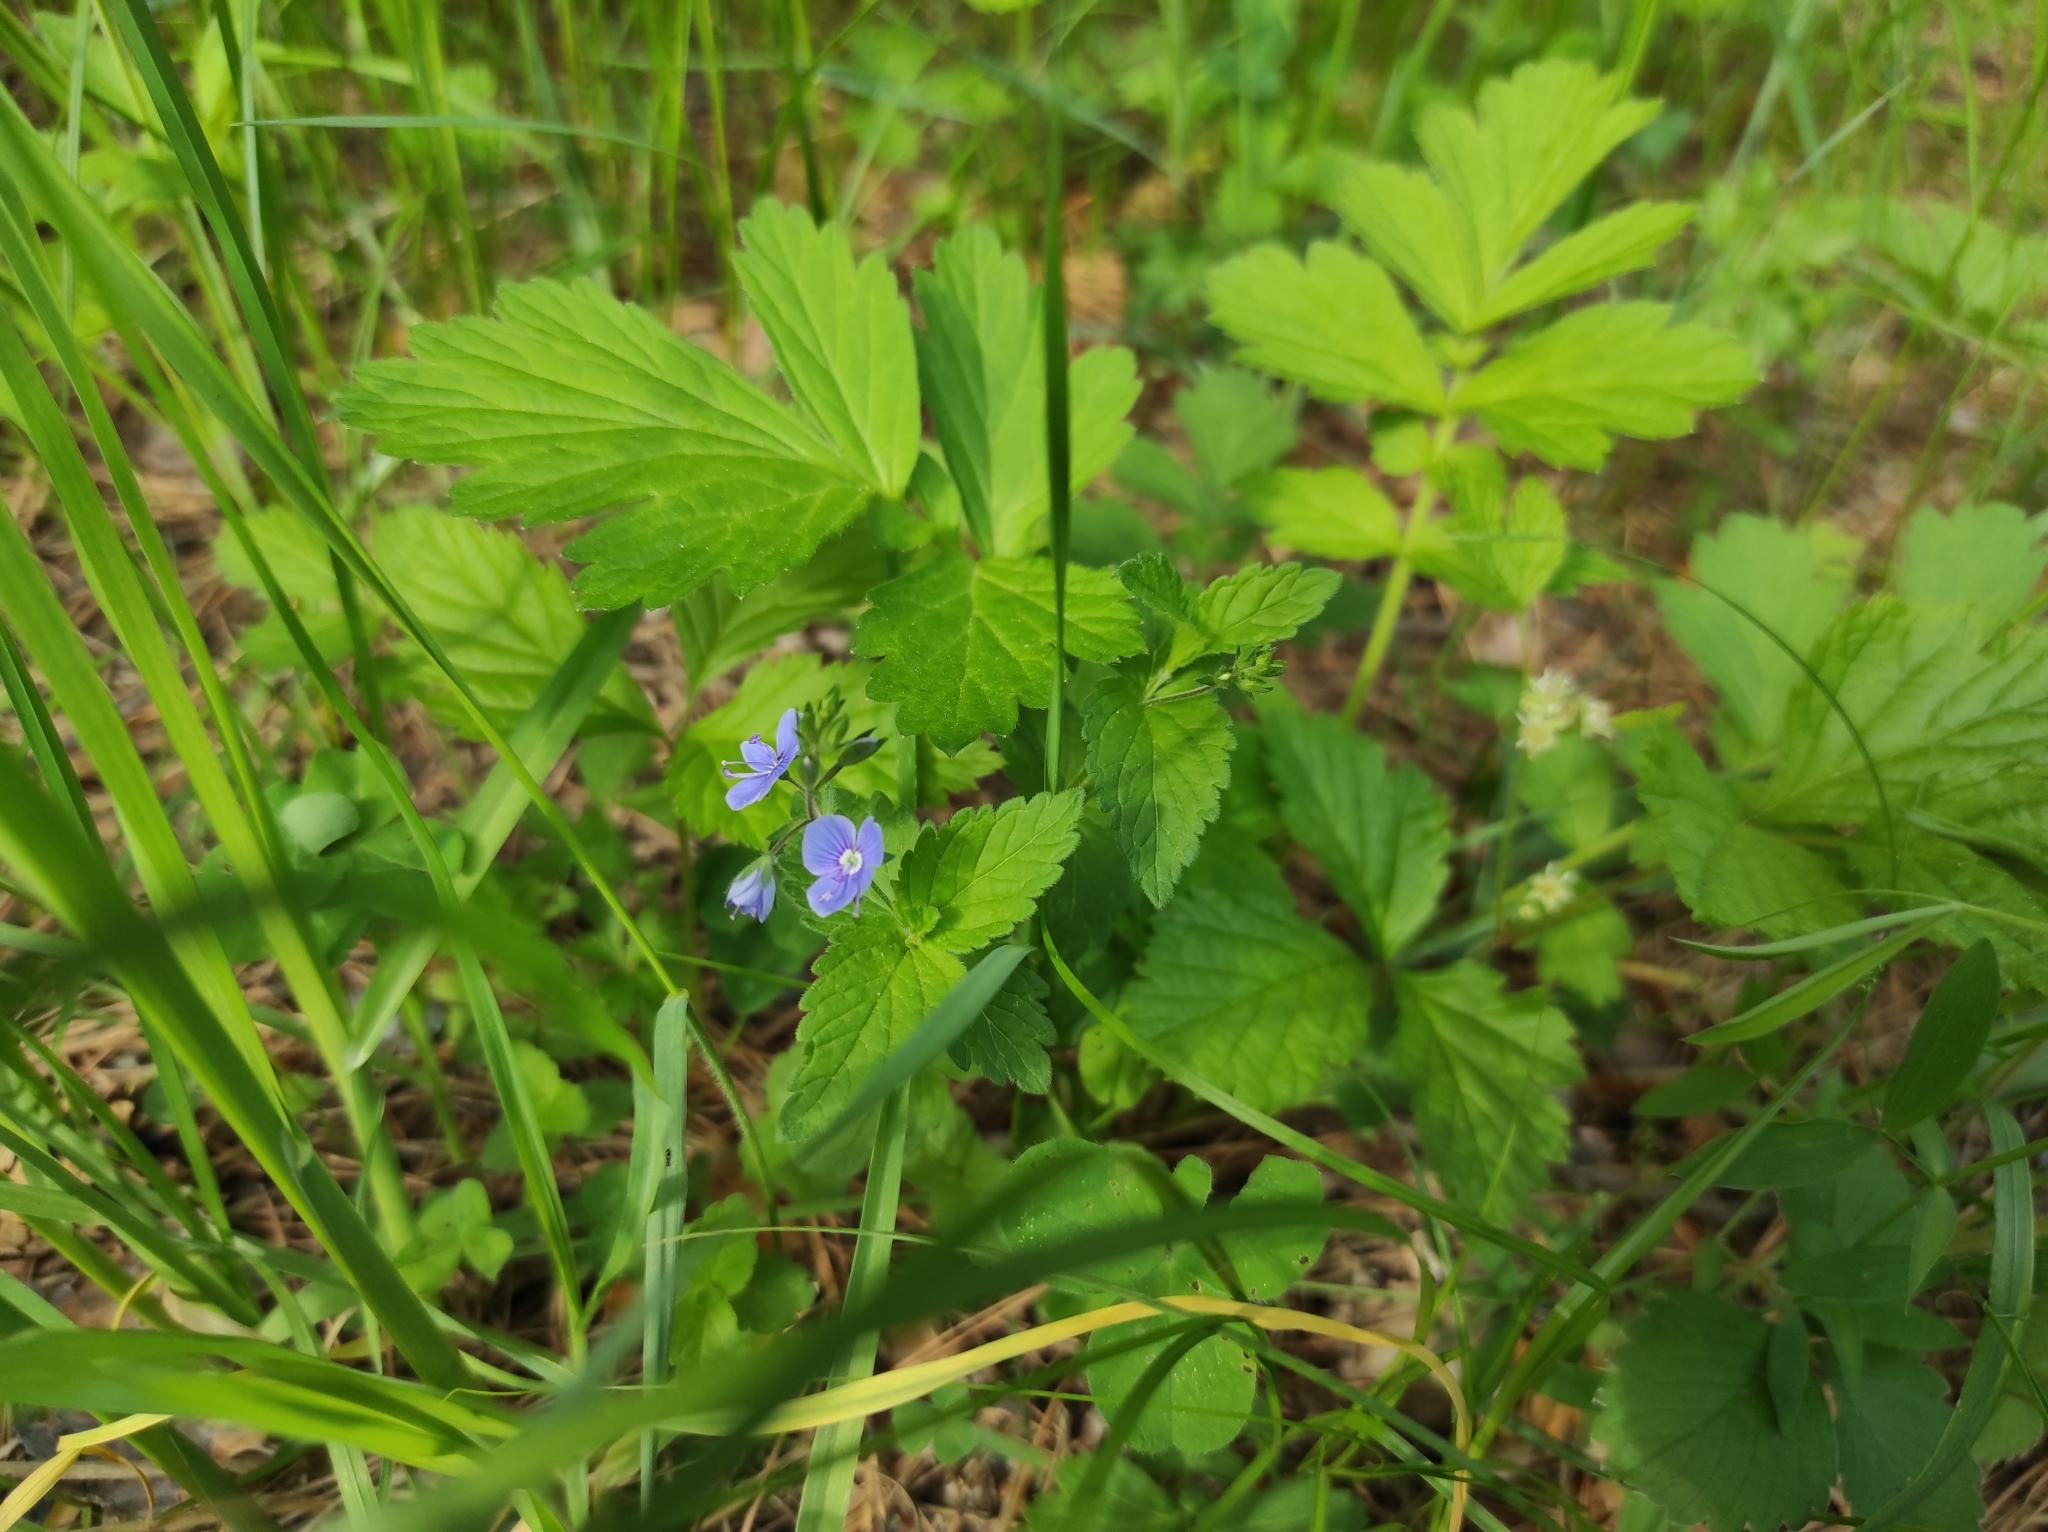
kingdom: Plantae
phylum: Tracheophyta
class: Magnoliopsida
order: Lamiales
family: Plantaginaceae
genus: Veronica
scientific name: Veronica chamaedrys
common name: Germander speedwell
